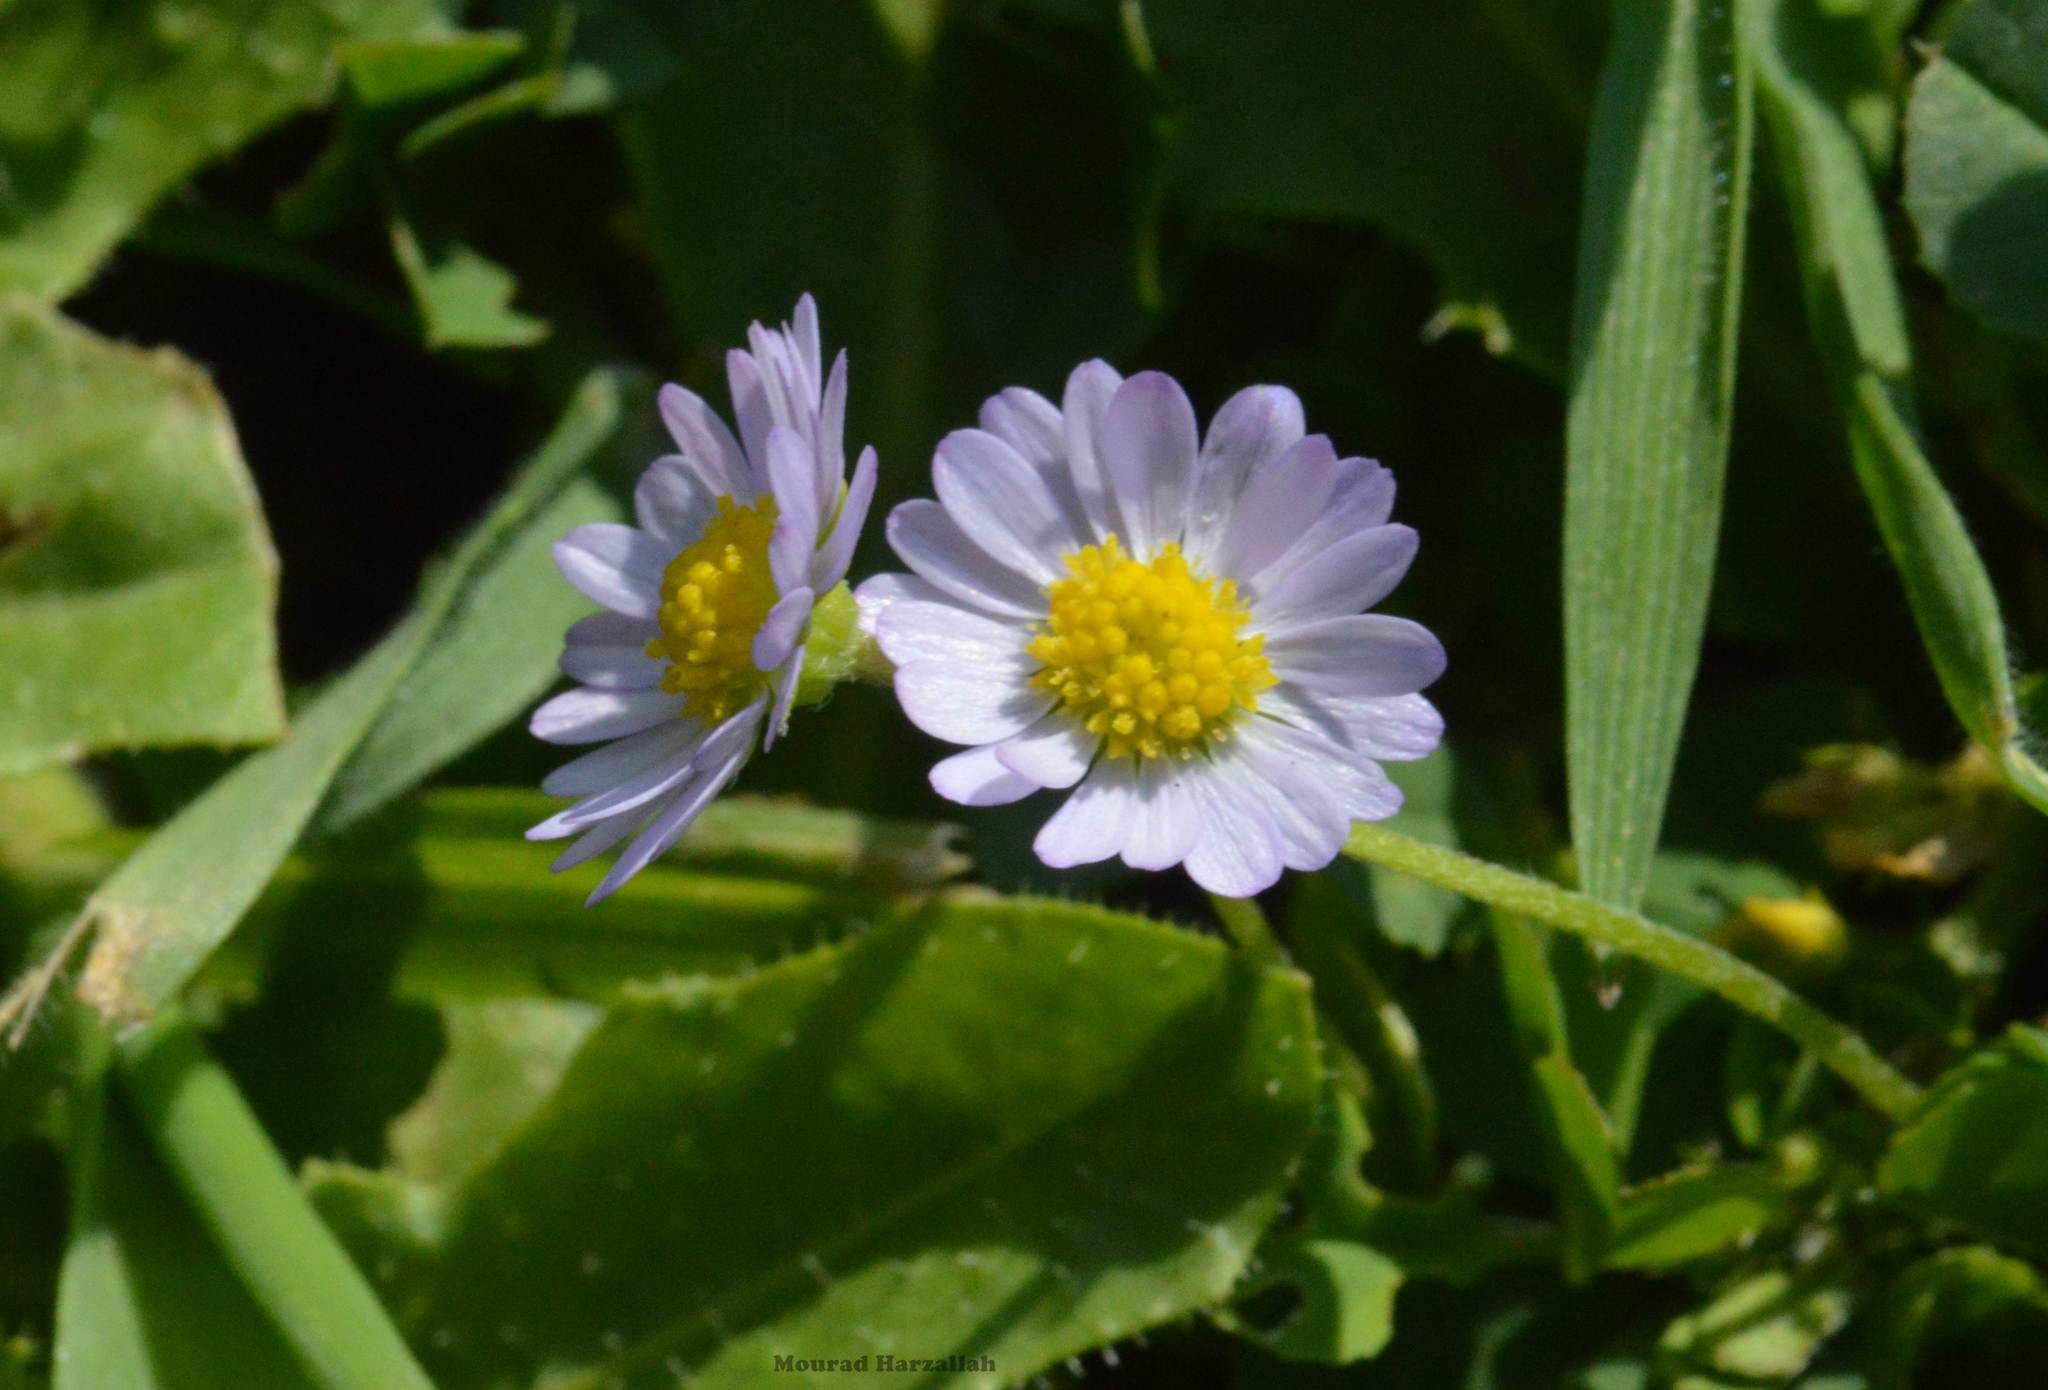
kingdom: Plantae
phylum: Tracheophyta
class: Magnoliopsida
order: Asterales
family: Asteraceae
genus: Bellis
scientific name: Bellis annua
